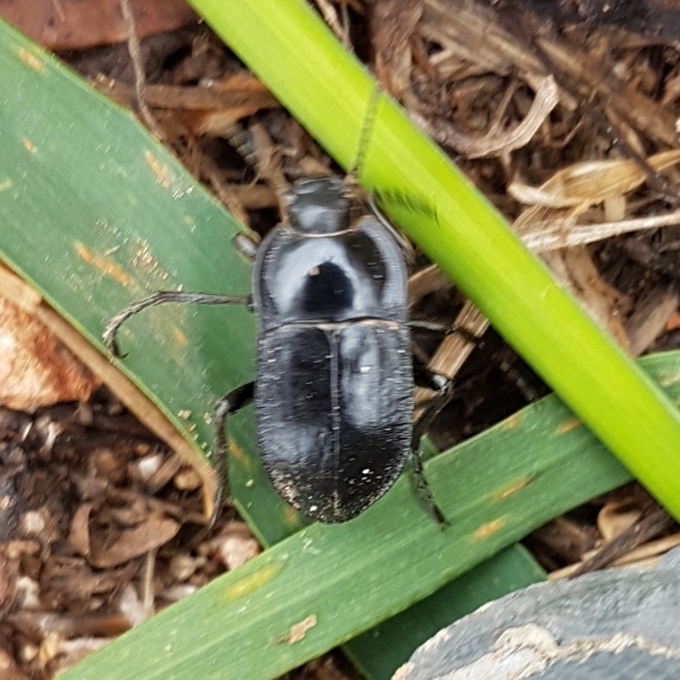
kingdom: Animalia
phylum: Arthropoda
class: Insecta
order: Coleoptera
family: Tenebrionidae
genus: Alphasida
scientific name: Alphasida depressa
